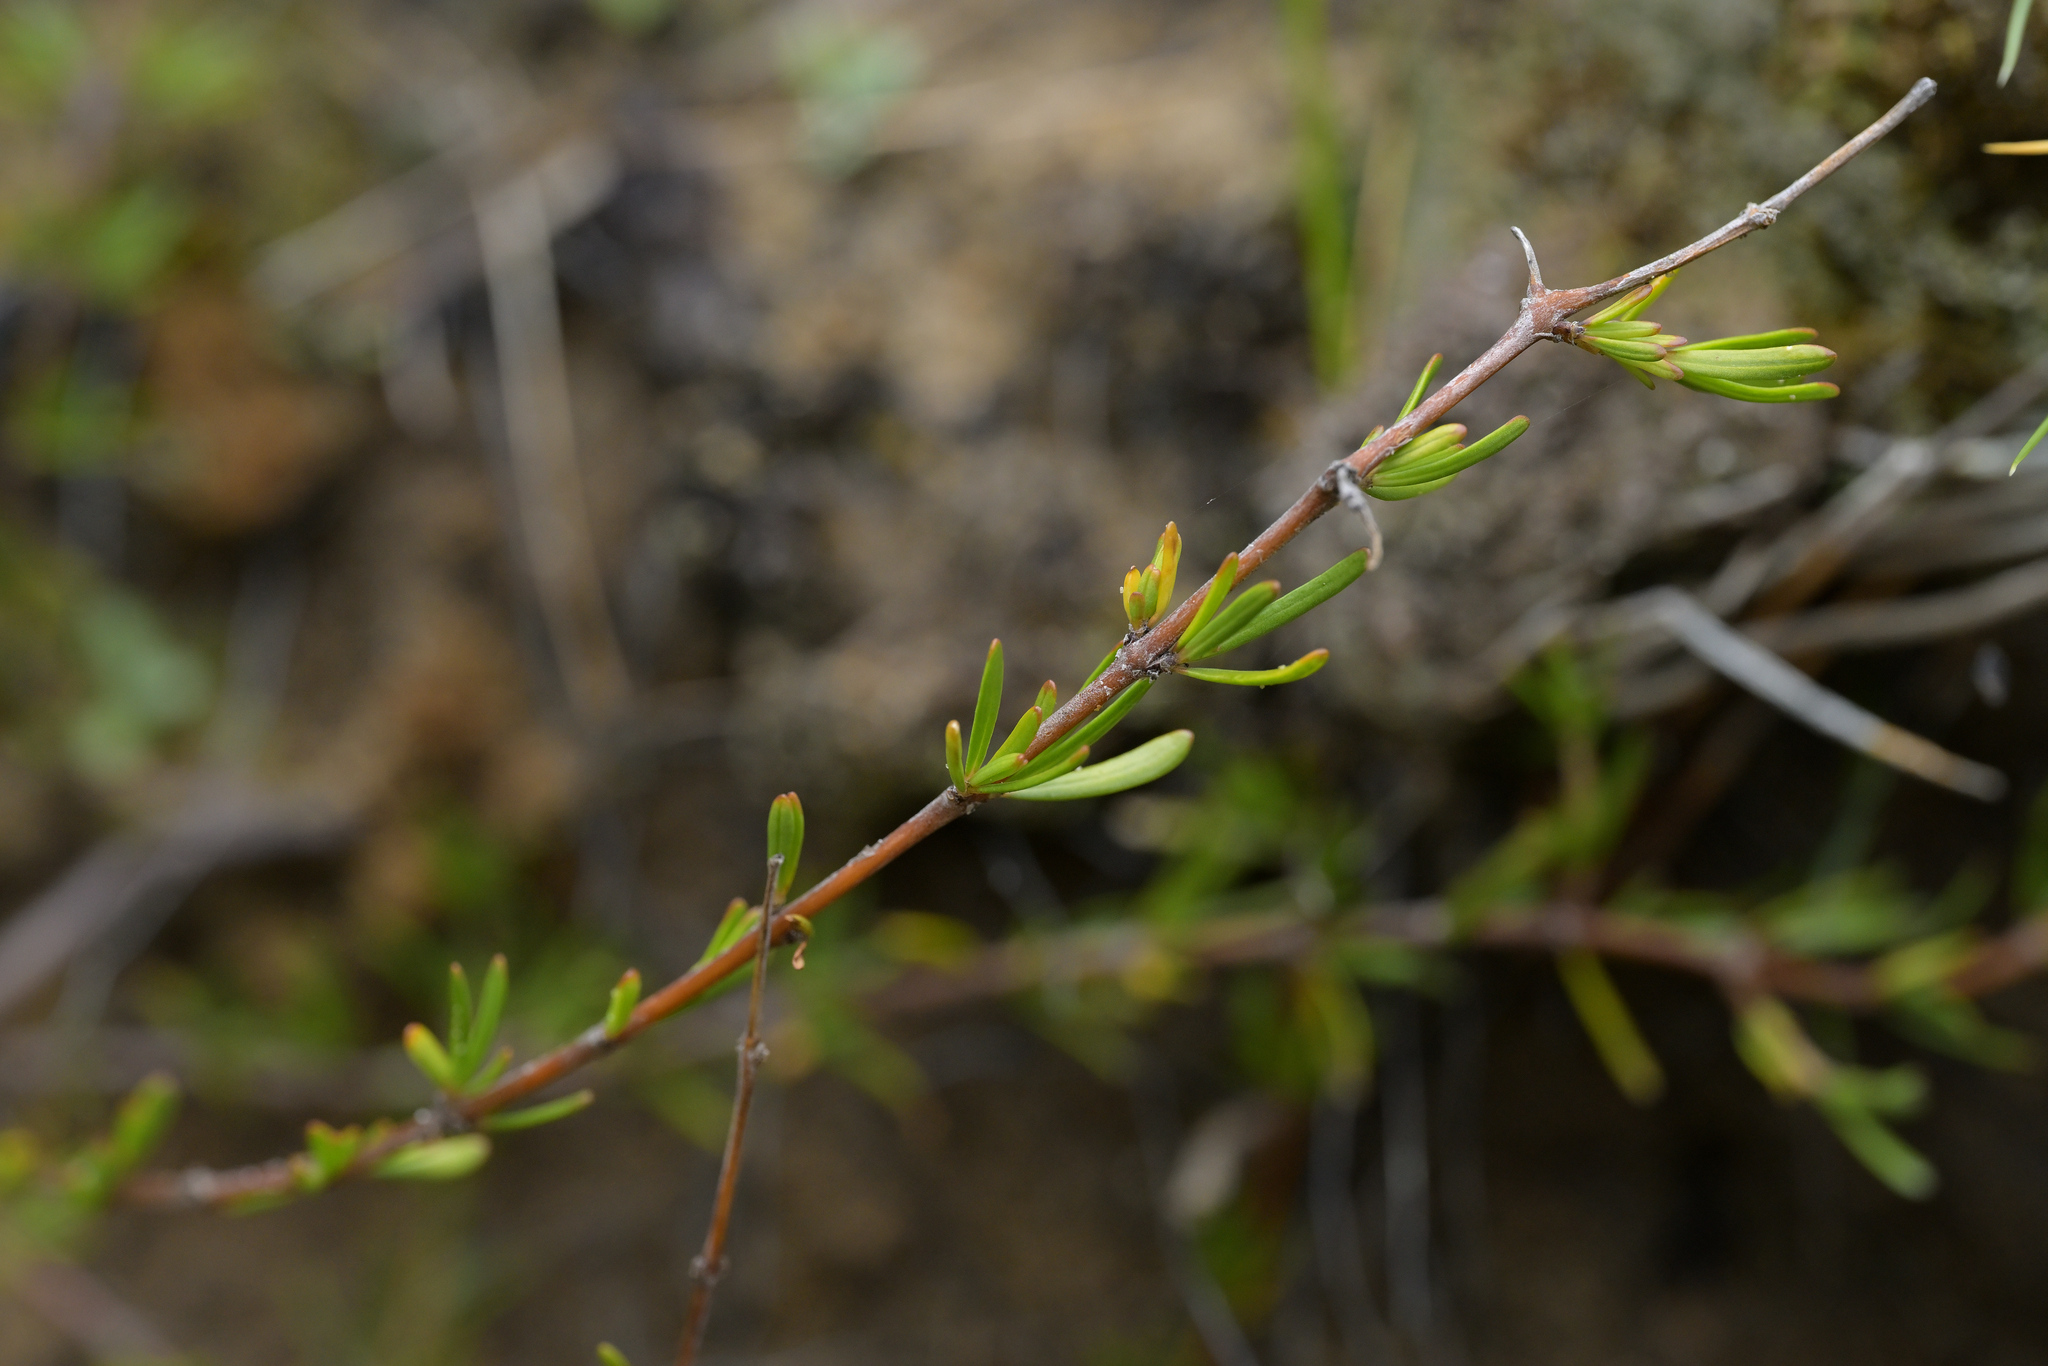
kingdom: Plantae
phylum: Tracheophyta
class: Magnoliopsida
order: Gentianales
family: Rubiaceae
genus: Coprosma
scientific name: Coprosma acerosa
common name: Sand coprosma
